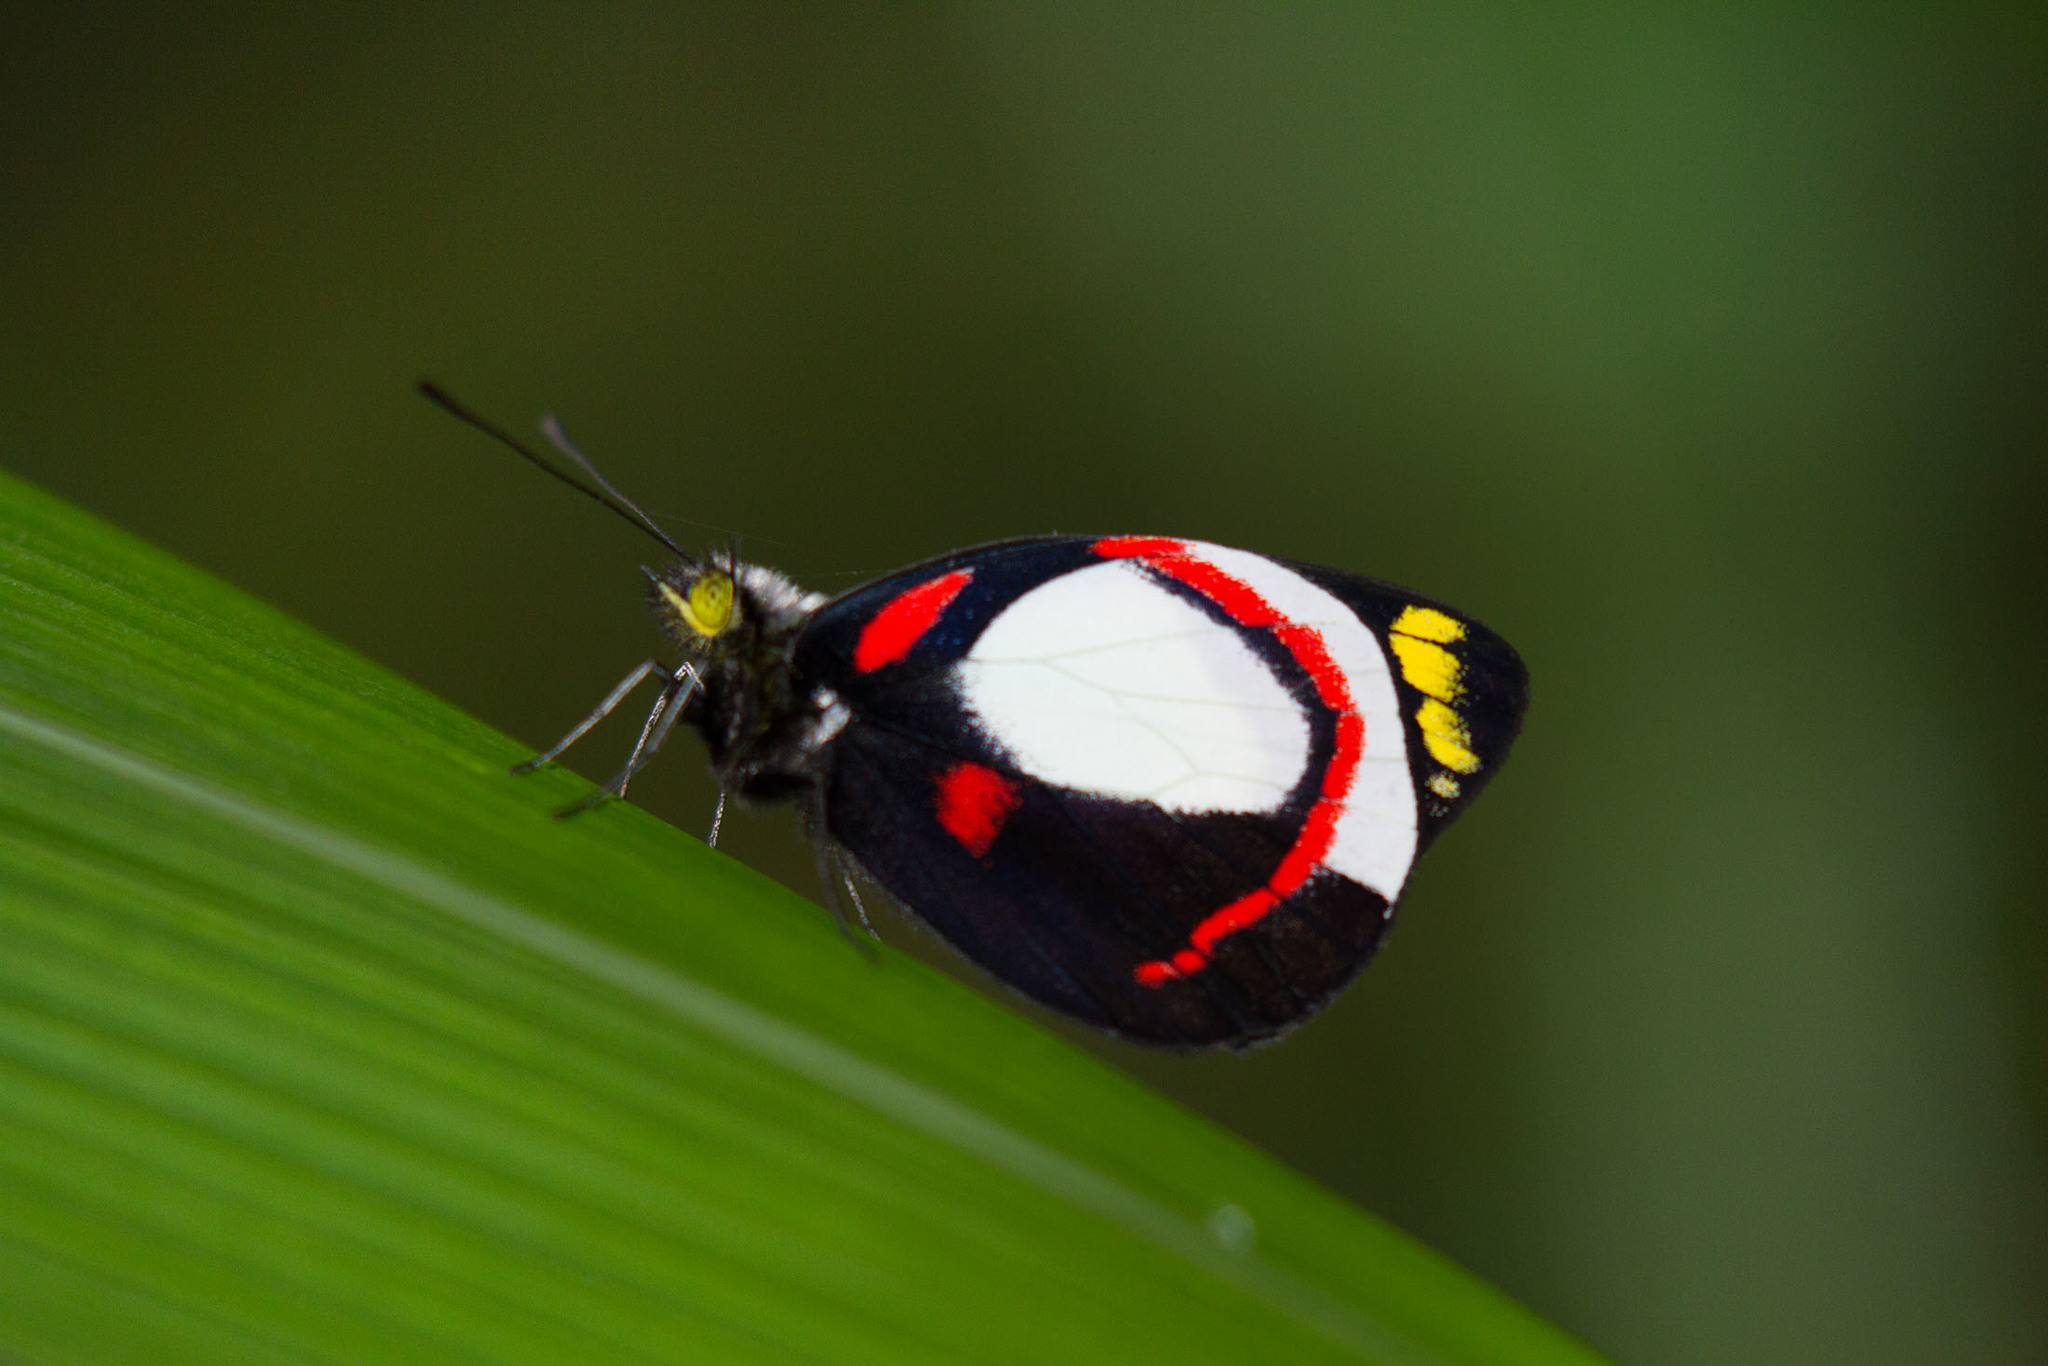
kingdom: Animalia
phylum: Arthropoda
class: Insecta
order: Lepidoptera
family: Pieridae
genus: Delias
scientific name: Delias ligata
